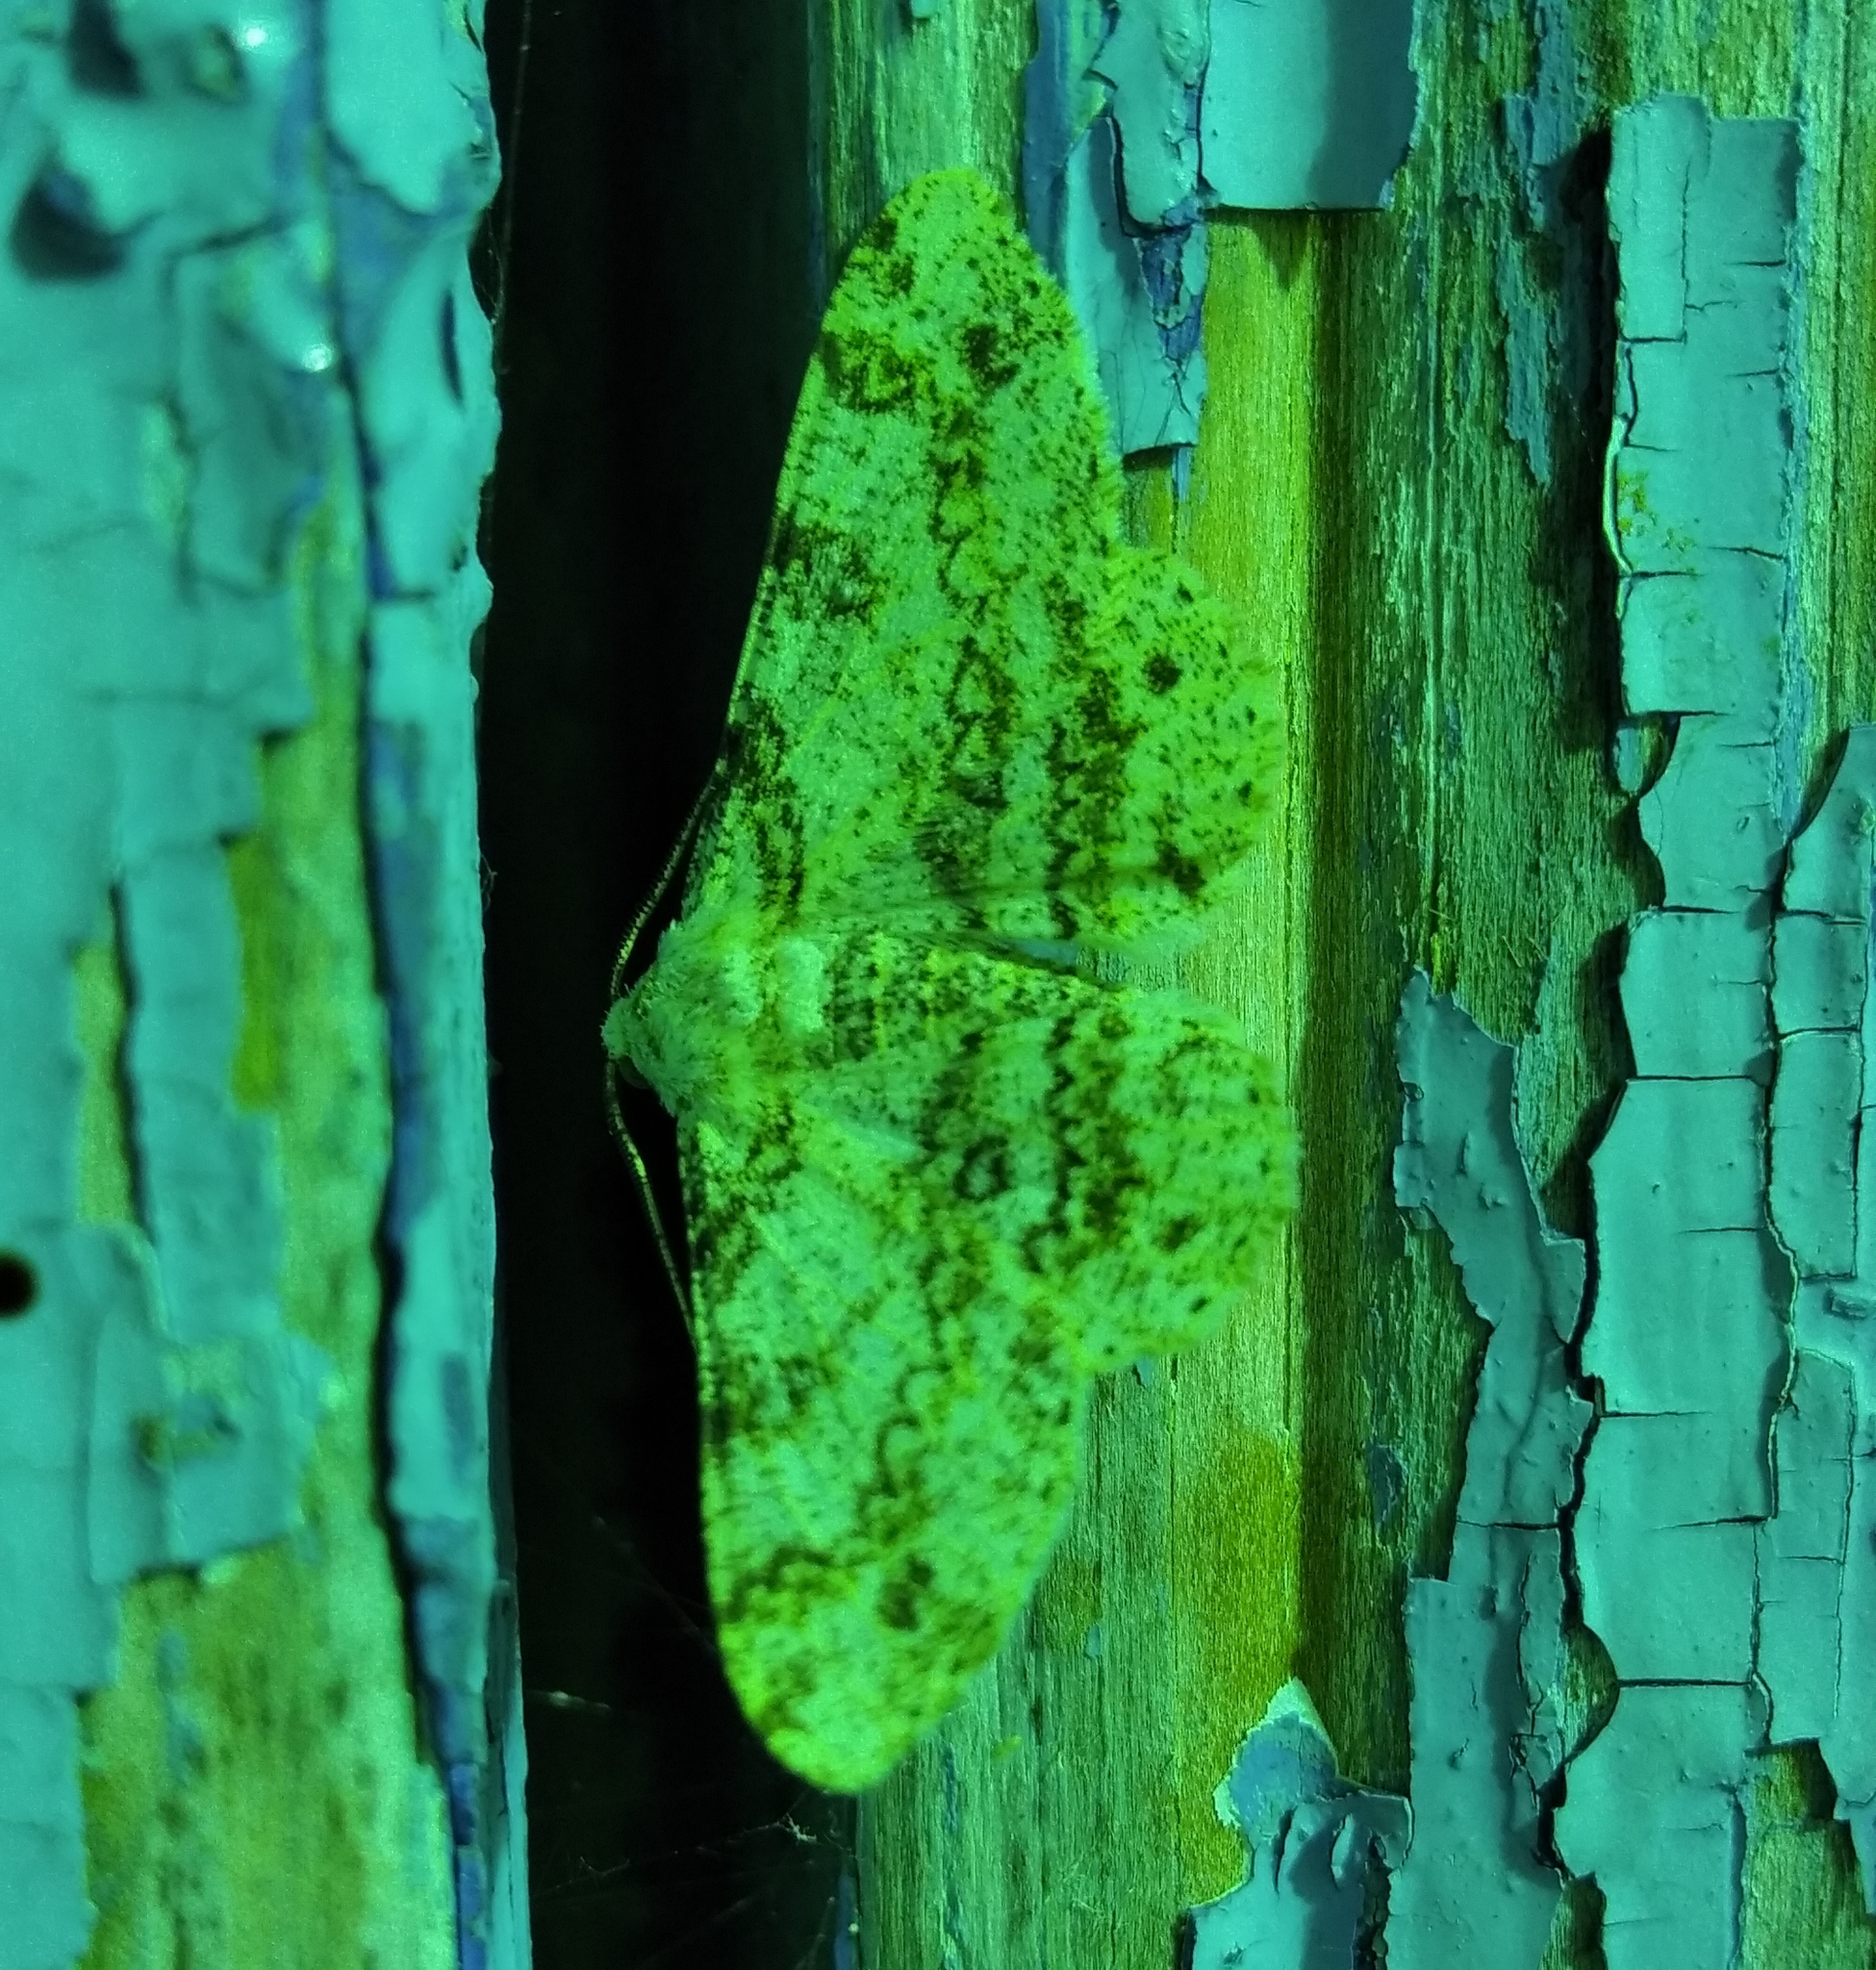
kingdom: Animalia
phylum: Arthropoda
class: Insecta
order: Lepidoptera
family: Geometridae
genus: Ascotis
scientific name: Ascotis selenaria
